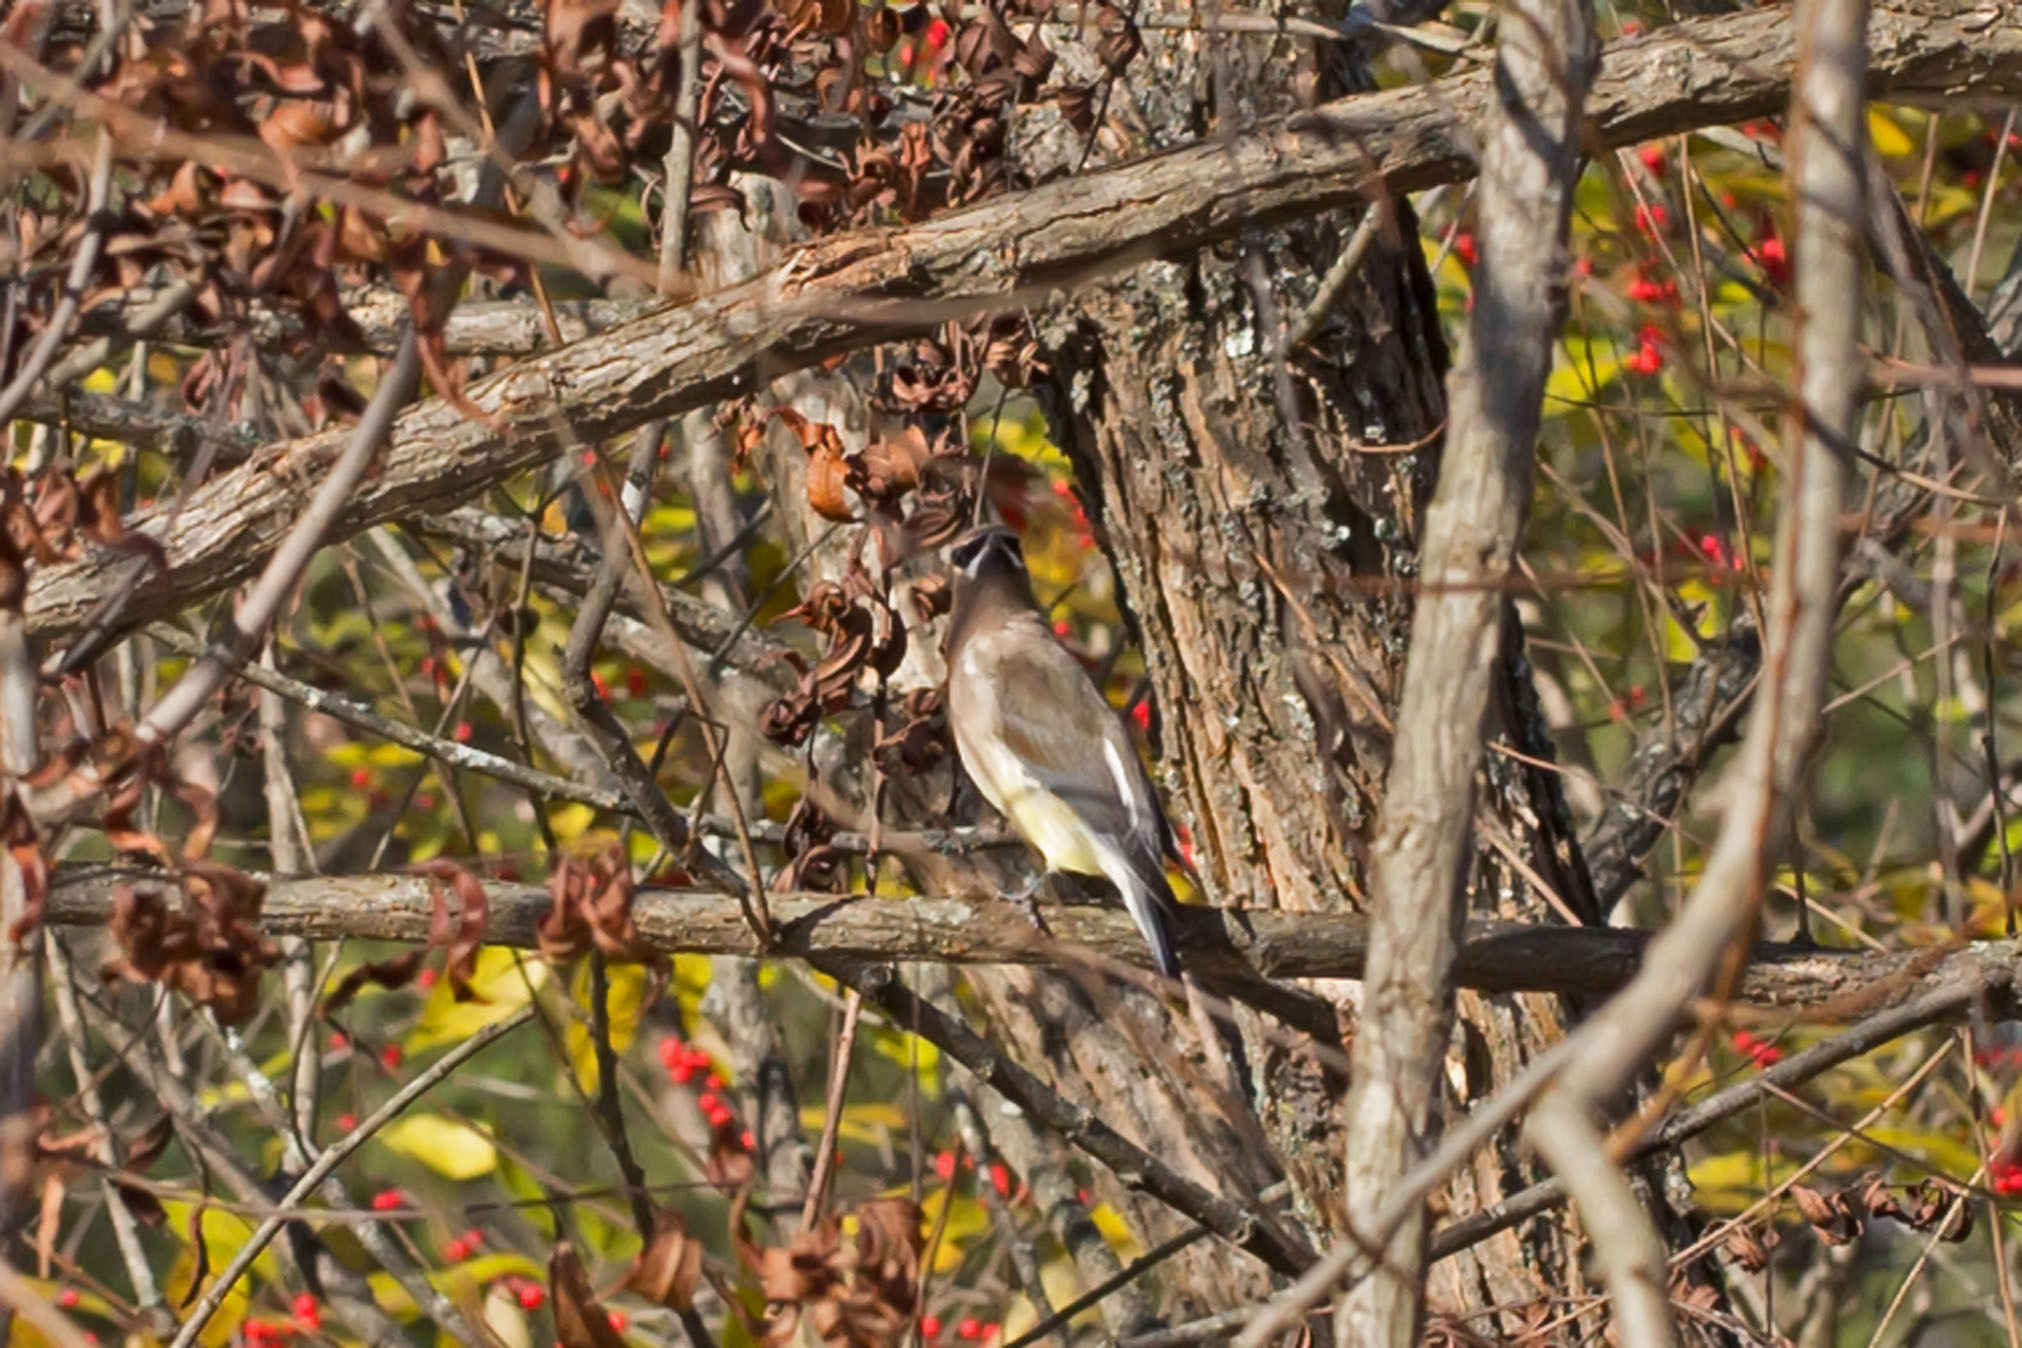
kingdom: Animalia
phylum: Chordata
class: Aves
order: Passeriformes
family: Bombycillidae
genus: Bombycilla
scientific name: Bombycilla cedrorum
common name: Cedar waxwing
